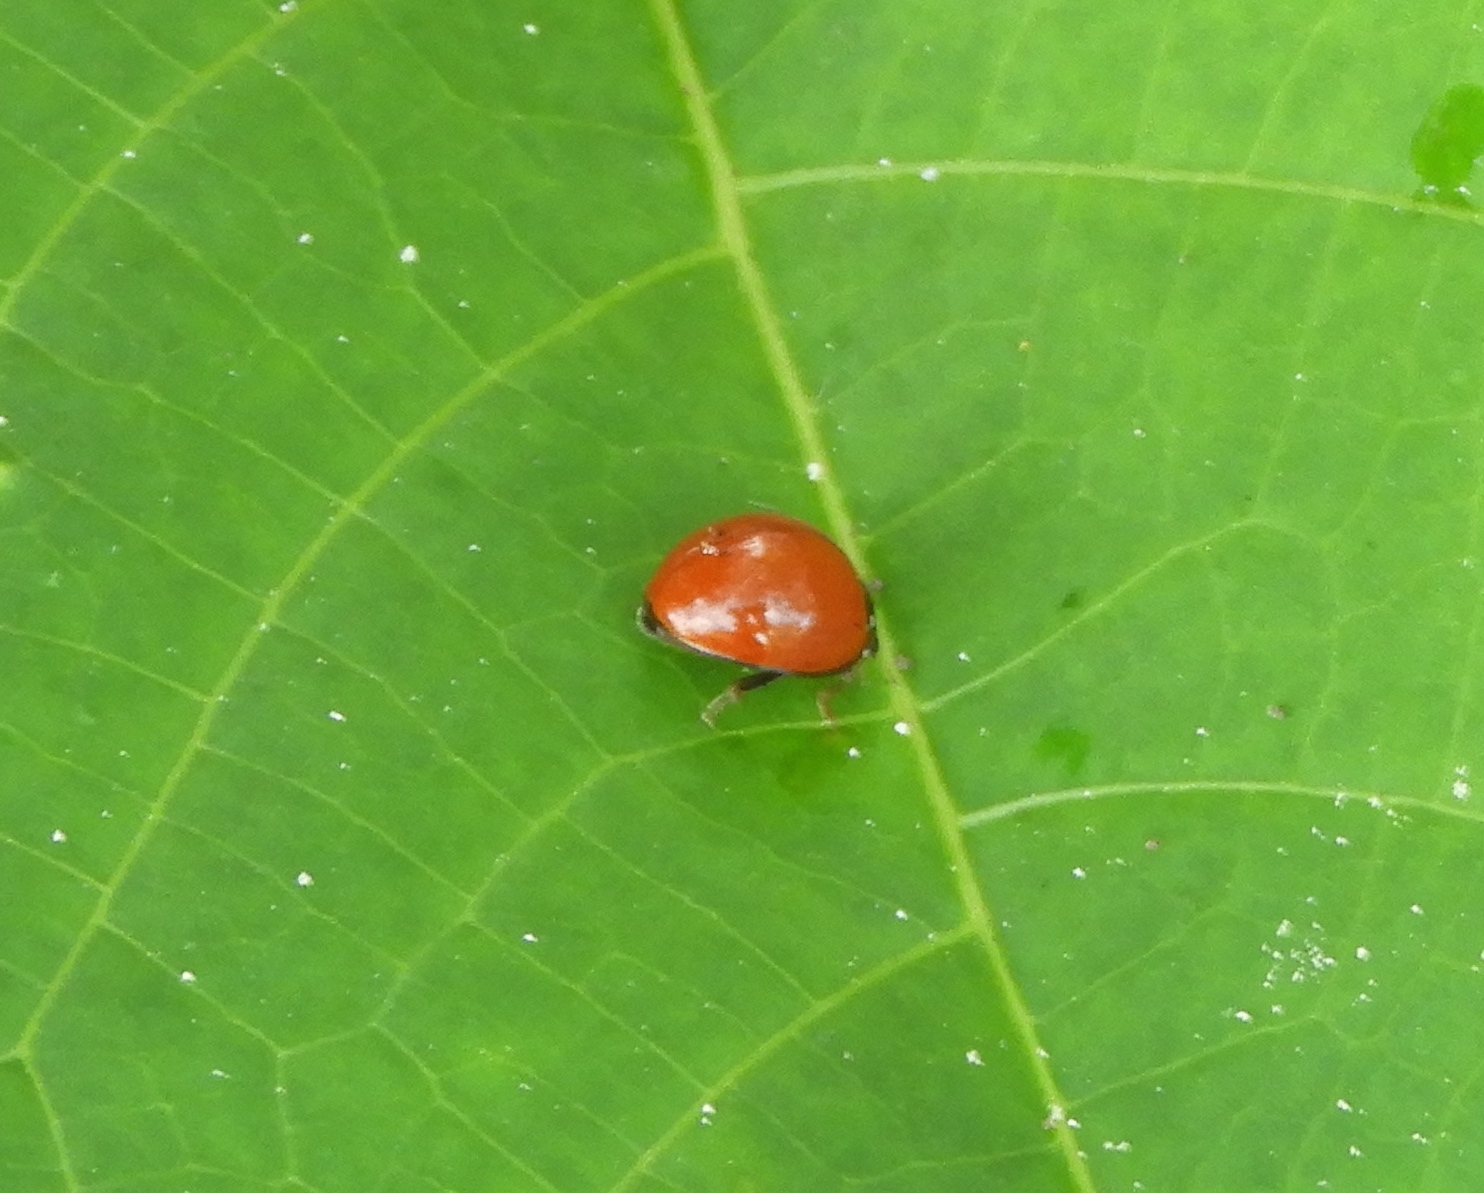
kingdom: Animalia
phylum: Arthropoda
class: Insecta
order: Coleoptera
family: Coccinellidae
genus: Cycloneda
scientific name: Cycloneda
